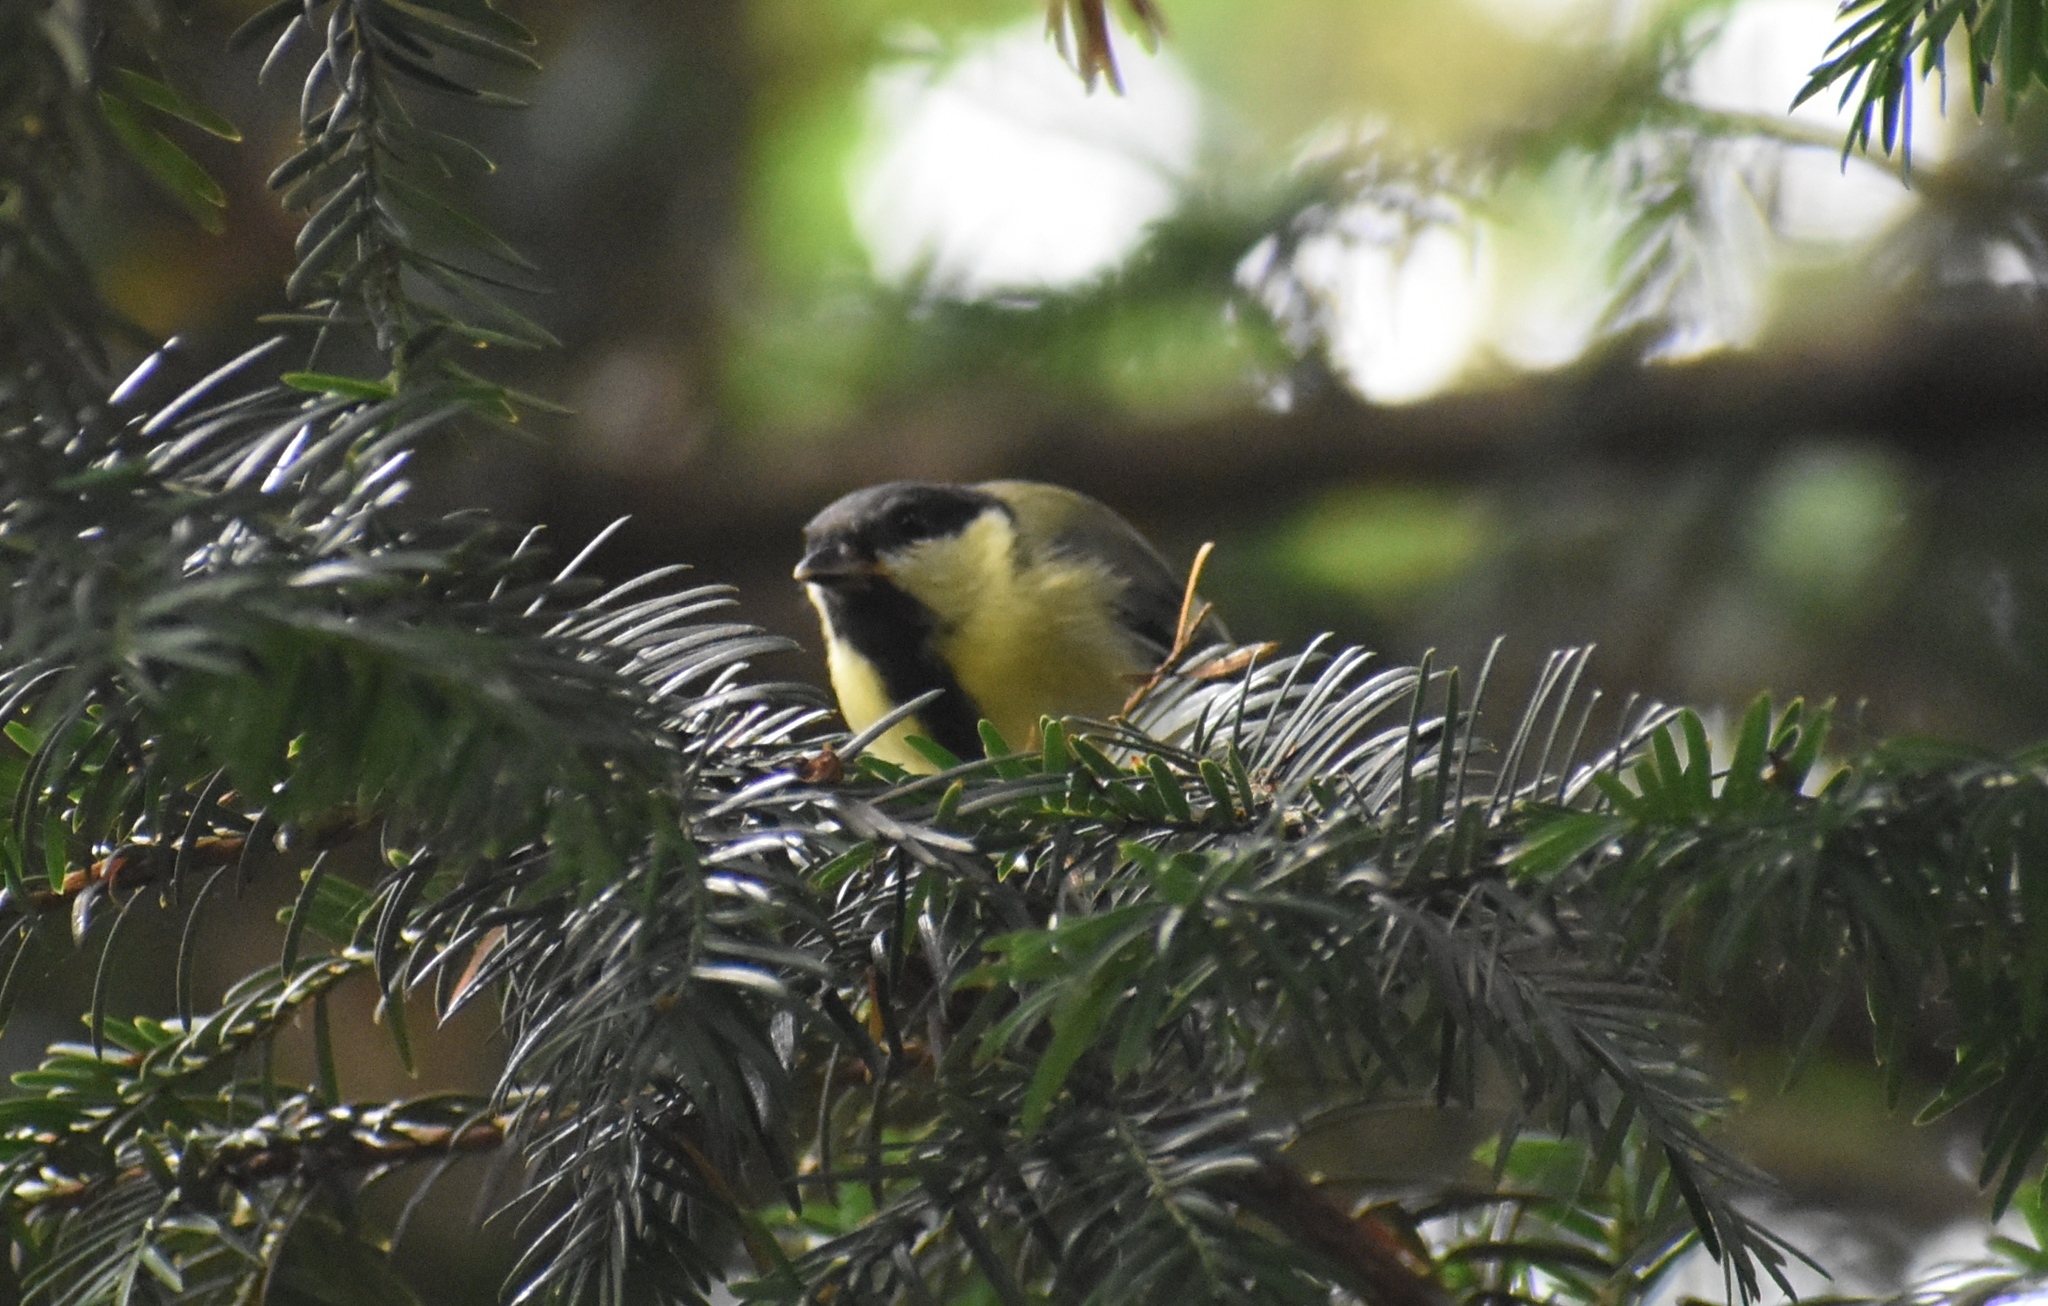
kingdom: Animalia
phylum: Chordata
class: Aves
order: Passeriformes
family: Paridae
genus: Parus
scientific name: Parus major
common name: Great tit
